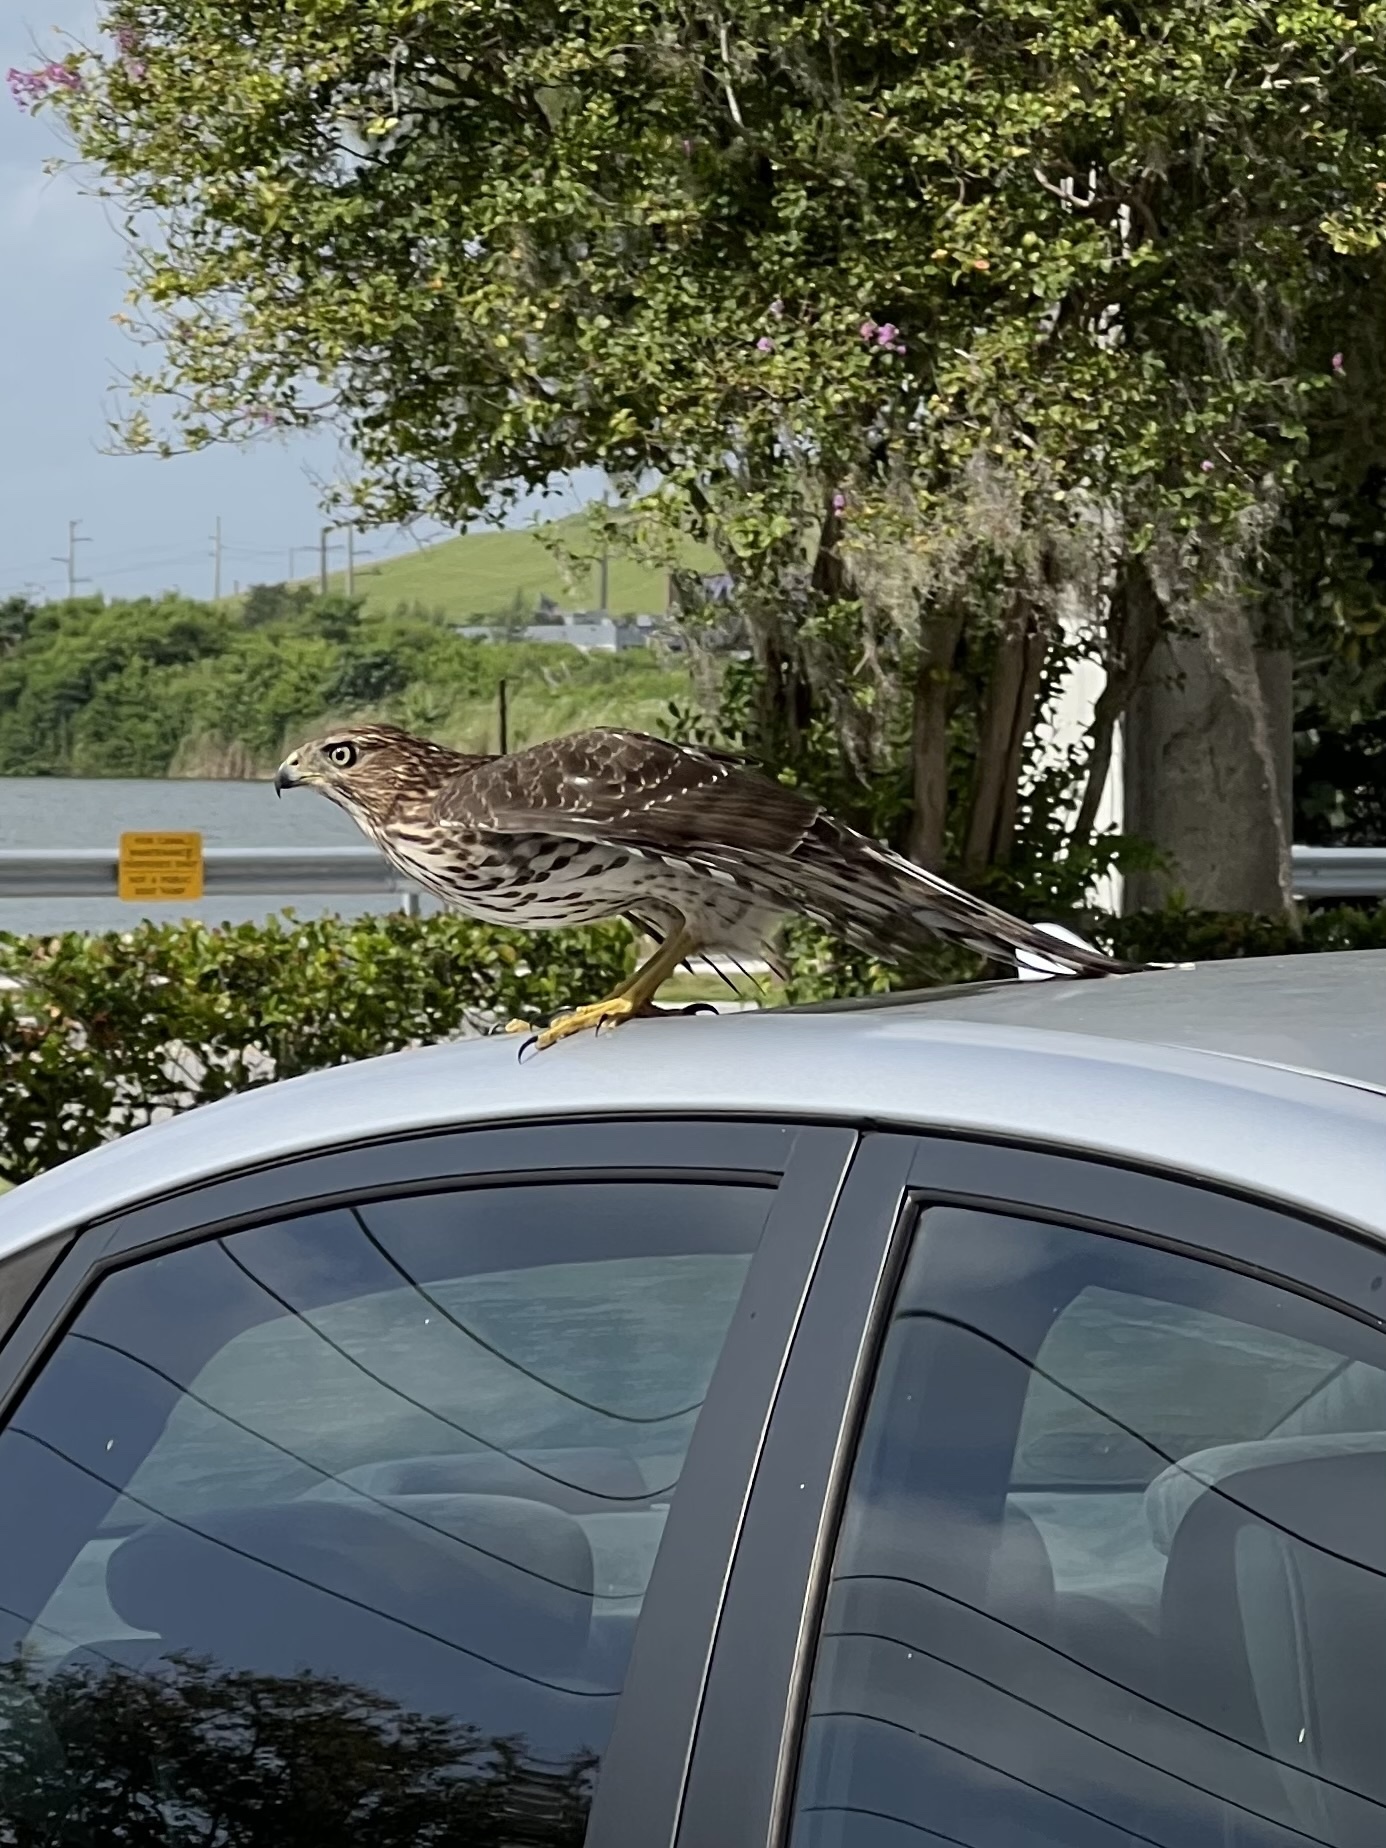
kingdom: Animalia
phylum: Chordata
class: Aves
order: Accipitriformes
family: Accipitridae
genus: Accipiter
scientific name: Accipiter cooperii
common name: Cooper's hawk
